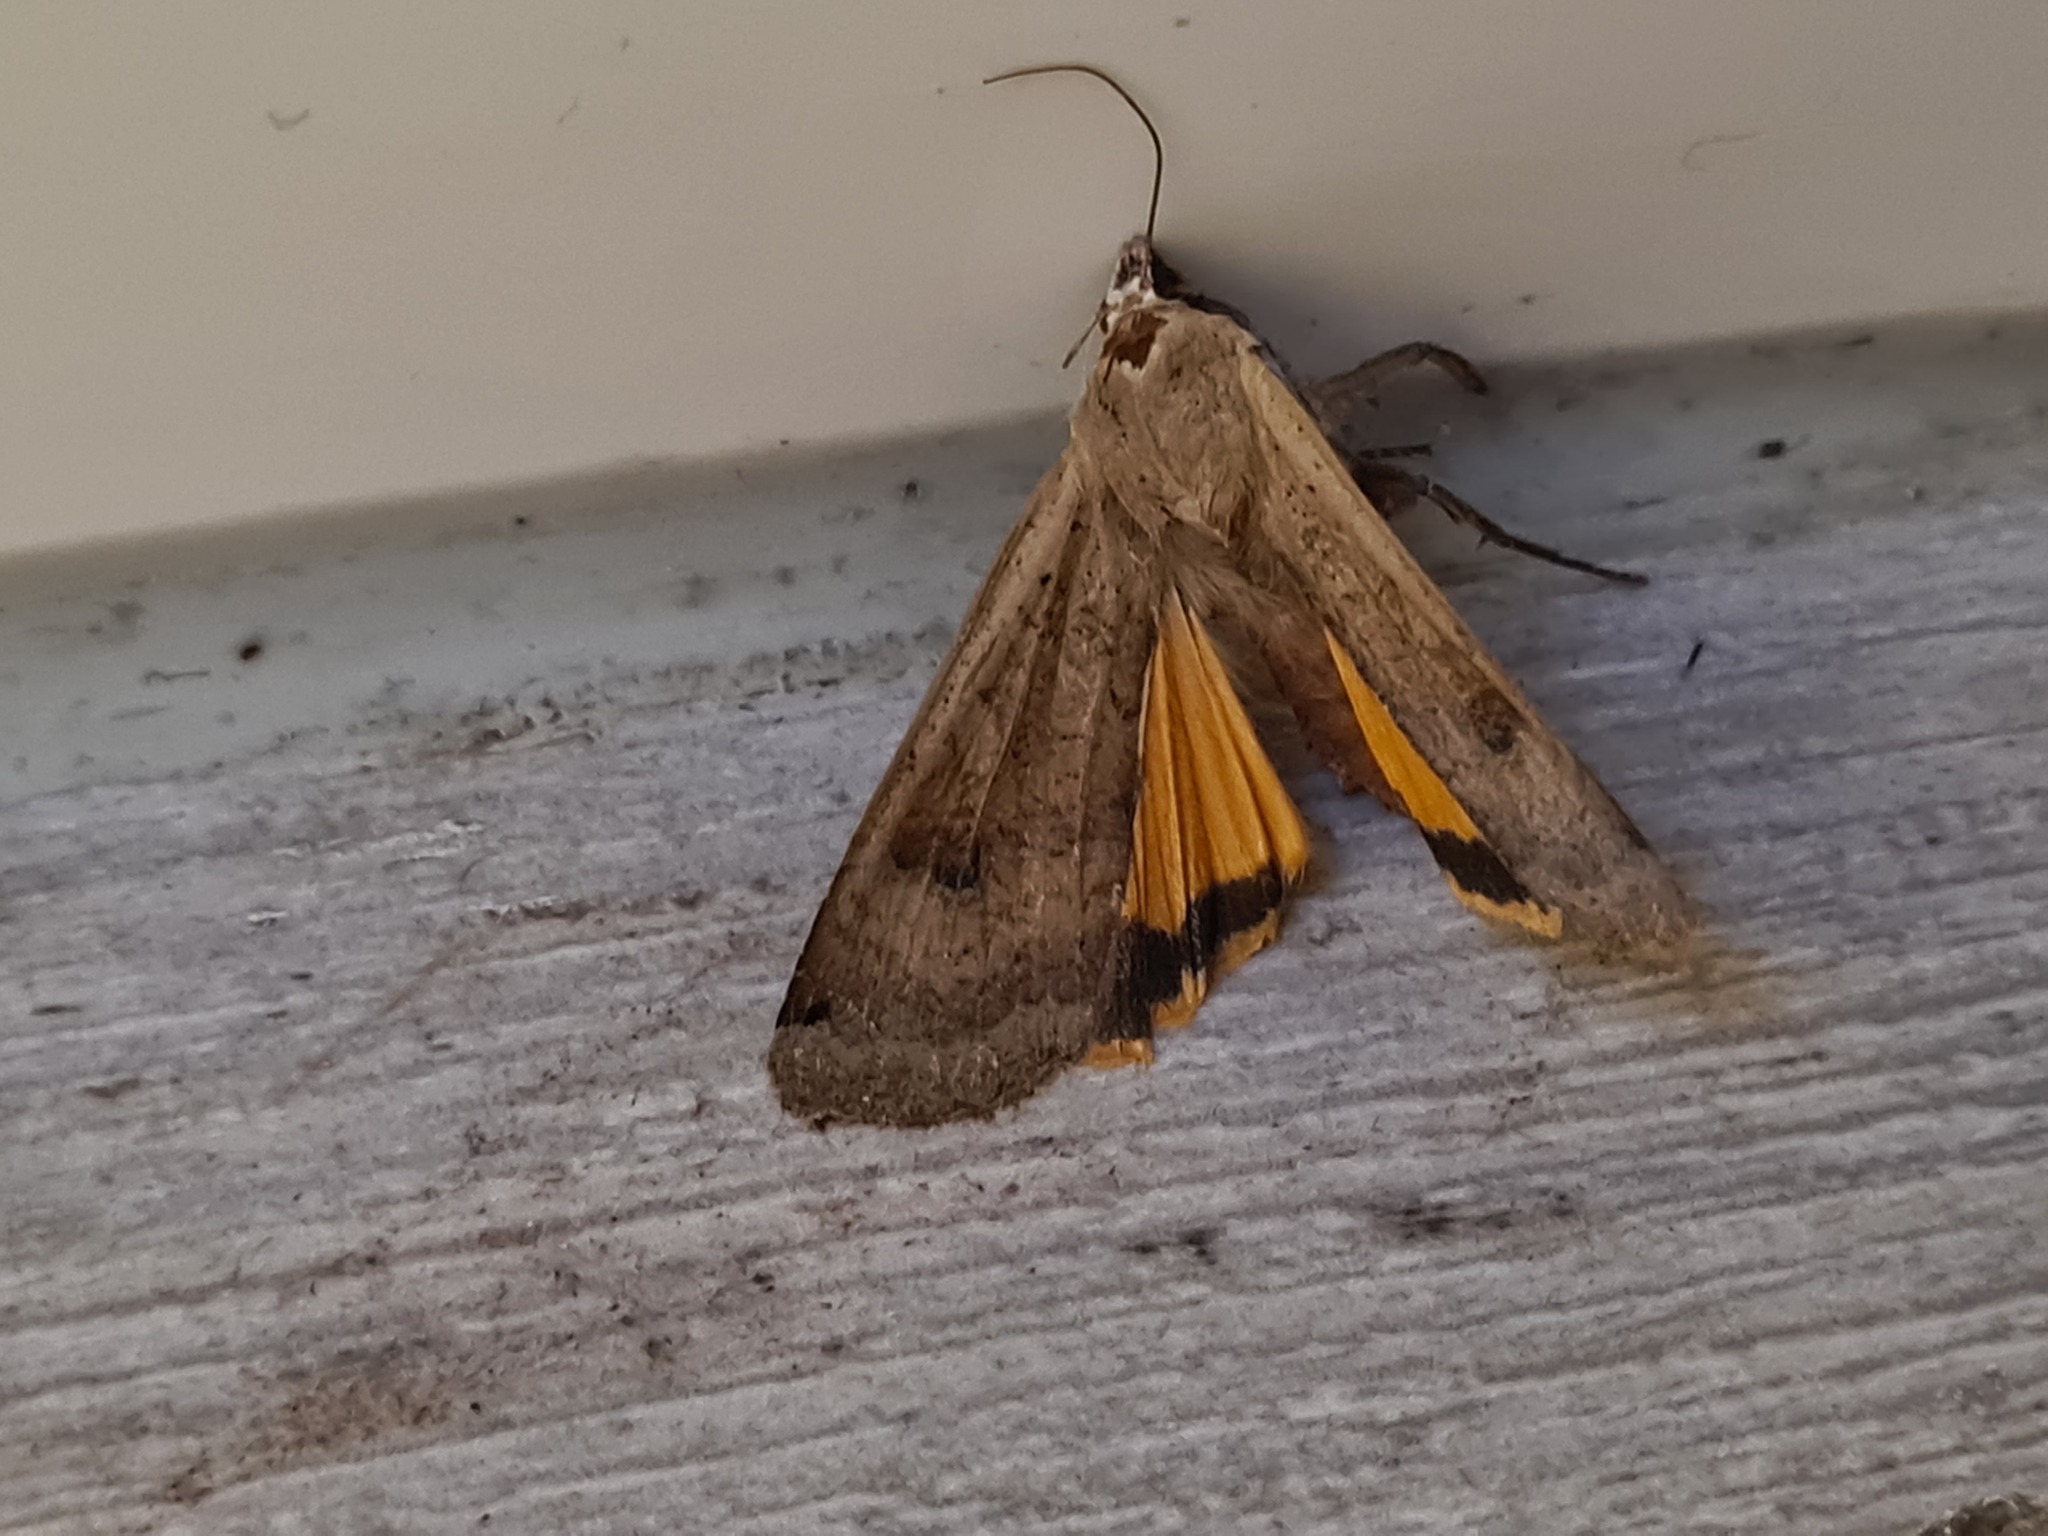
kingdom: Animalia
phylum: Arthropoda
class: Insecta
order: Lepidoptera
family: Noctuidae
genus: Noctua
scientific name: Noctua pronuba
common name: Large yellow underwing
